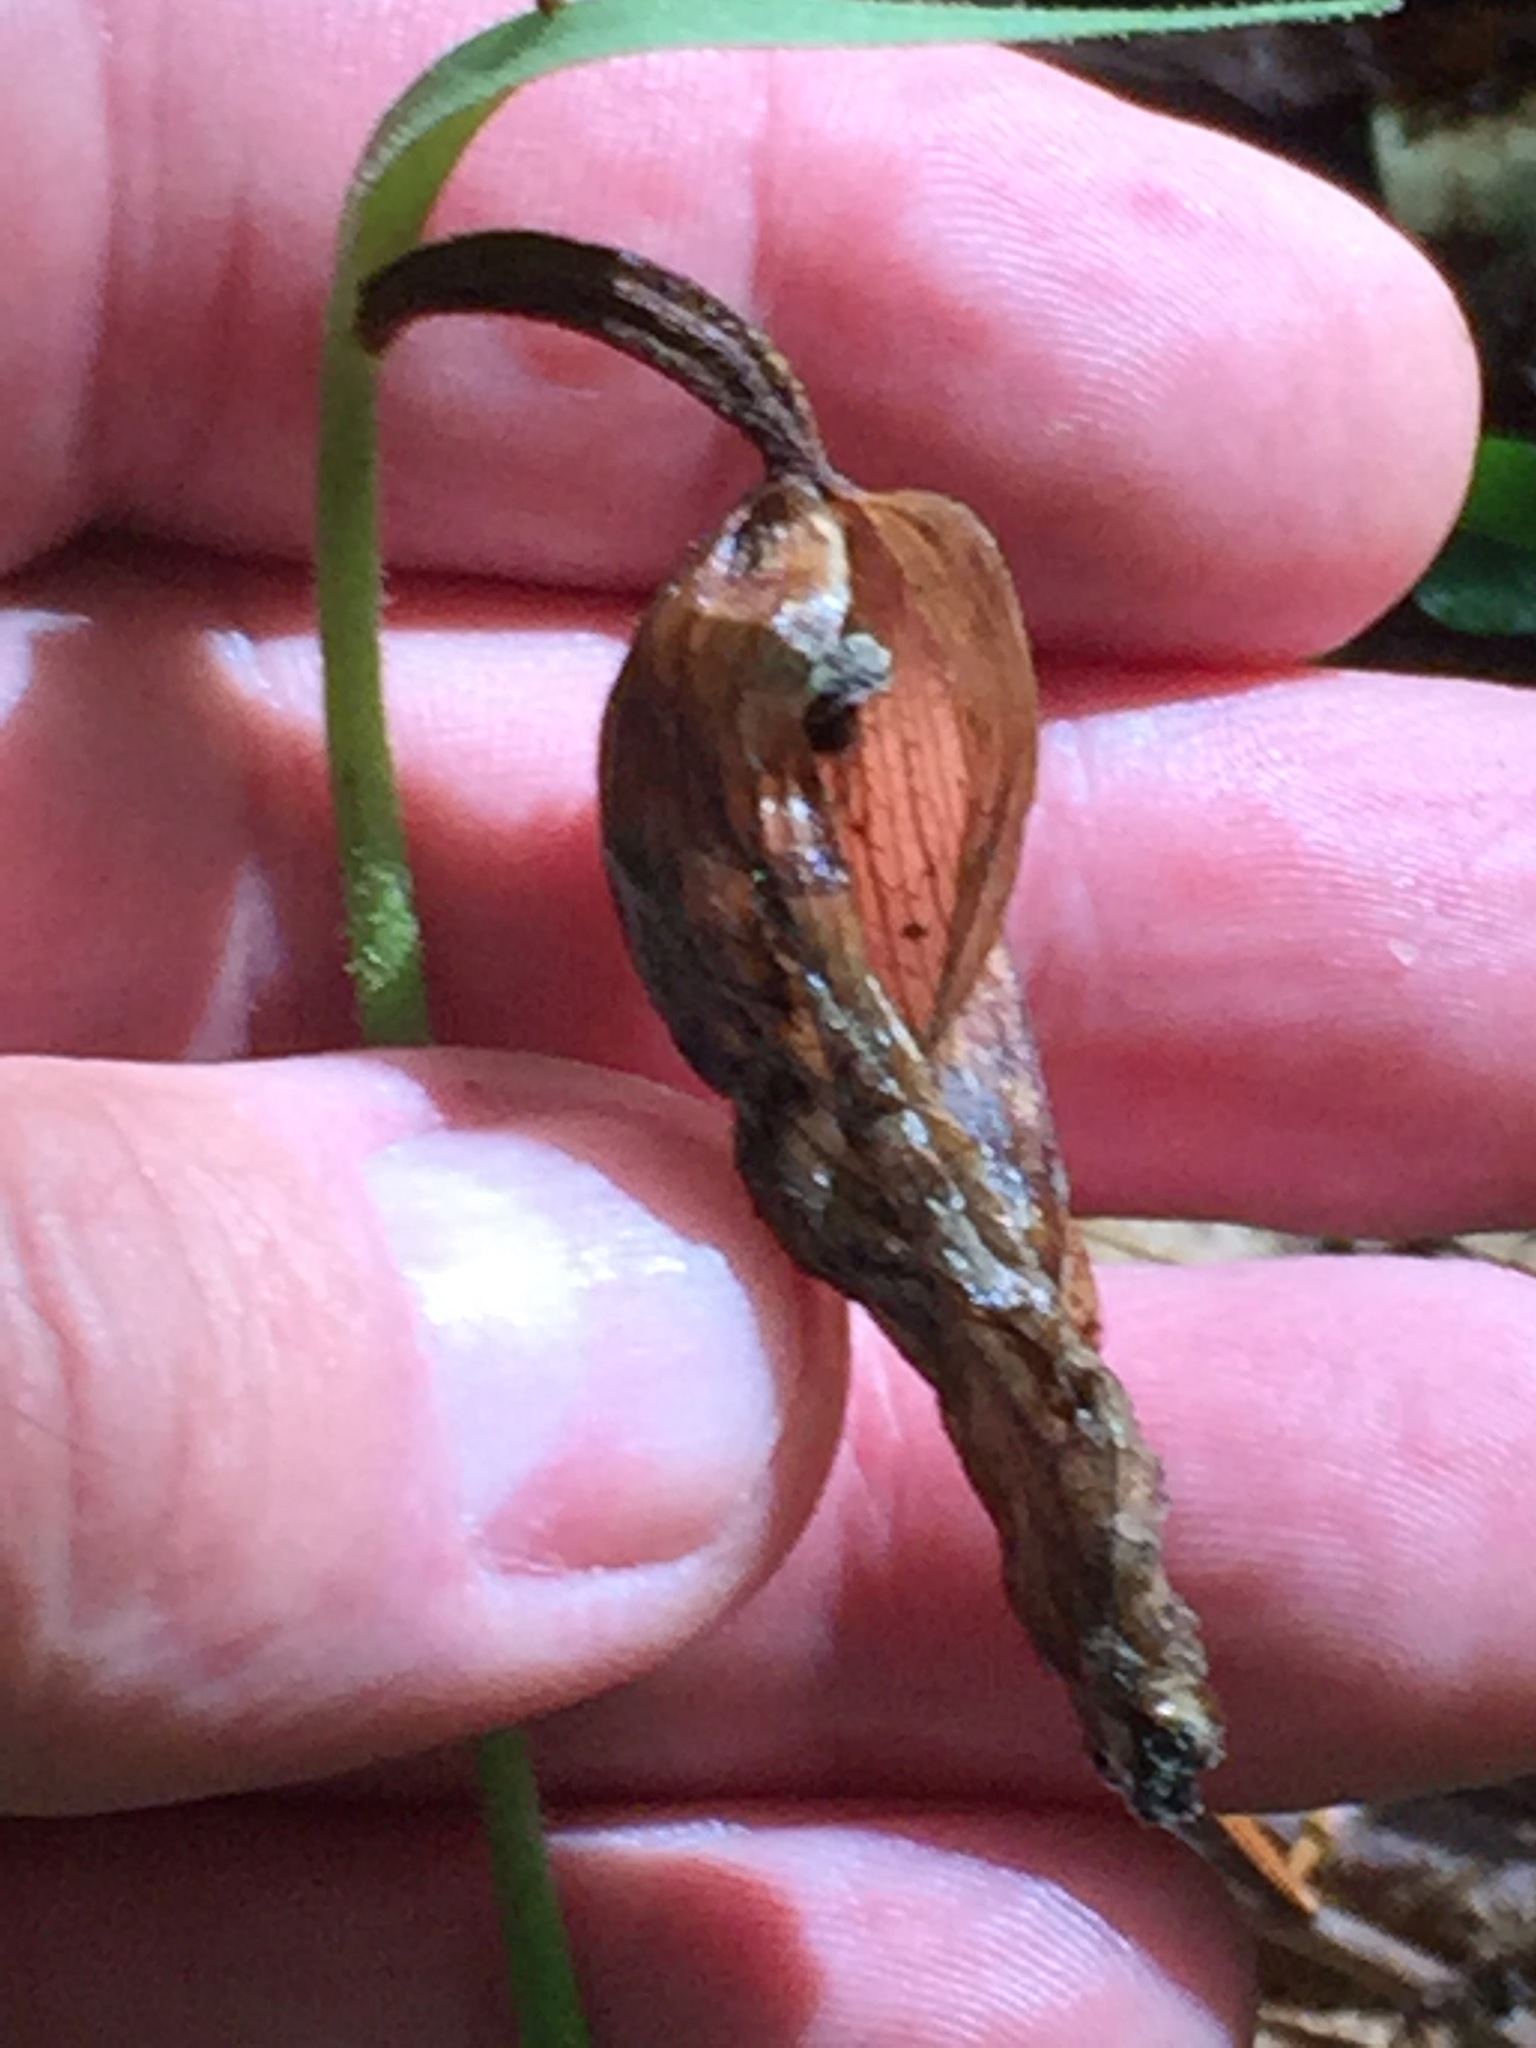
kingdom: Plantae
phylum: Tracheophyta
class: Liliopsida
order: Asparagales
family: Orchidaceae
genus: Cypripedium
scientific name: Cypripedium acaule
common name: Pink lady's-slipper
